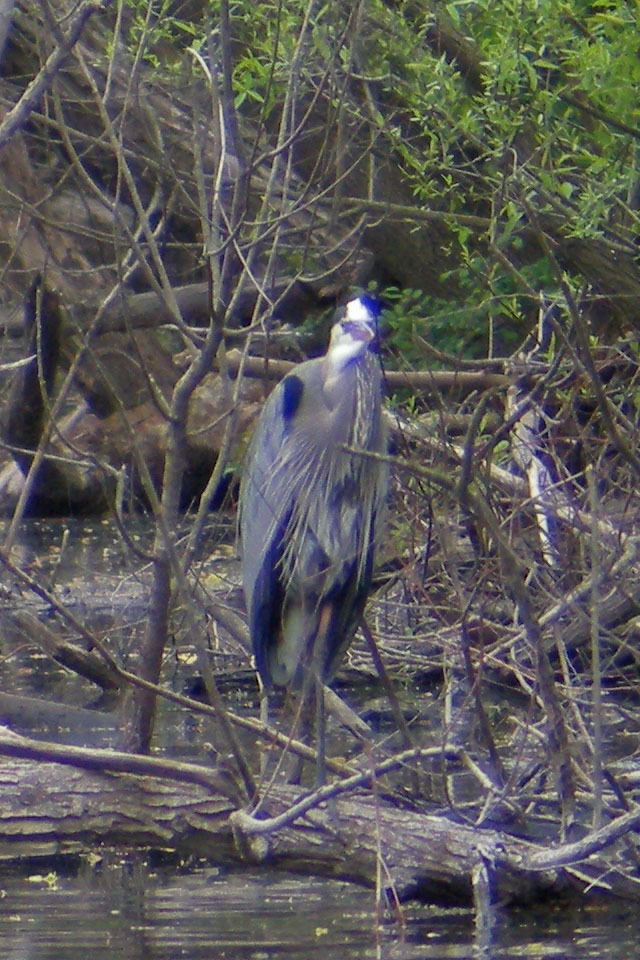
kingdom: Animalia
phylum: Chordata
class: Aves
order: Pelecaniformes
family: Ardeidae
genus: Ardea
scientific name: Ardea herodias
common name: Great blue heron
